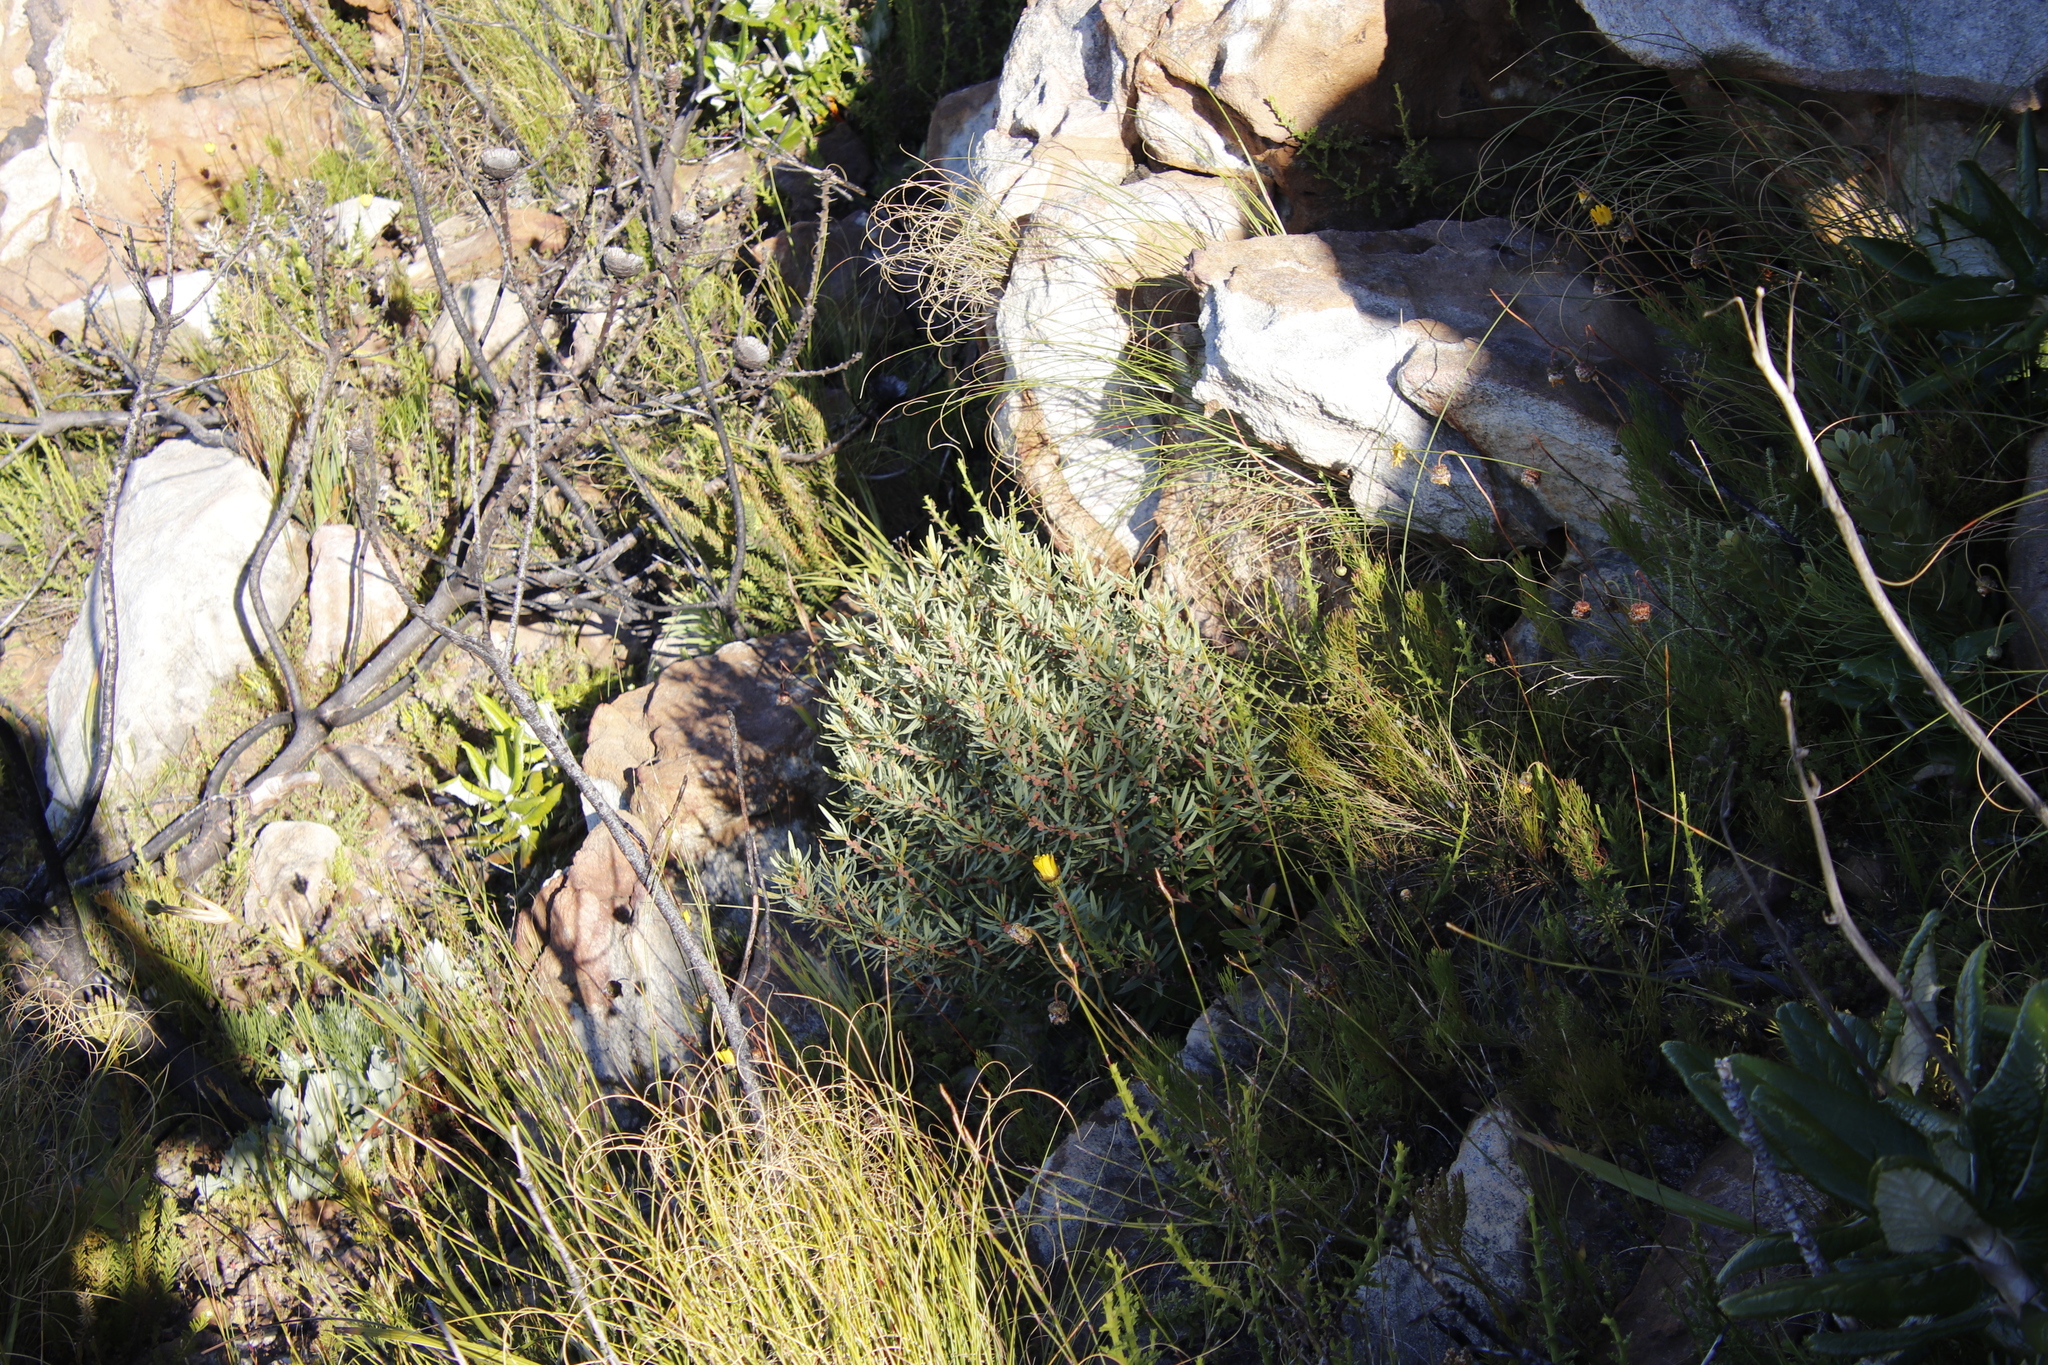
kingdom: Plantae
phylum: Tracheophyta
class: Magnoliopsida
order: Cornales
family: Grubbiaceae
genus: Grubbia
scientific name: Grubbia tomentosa
